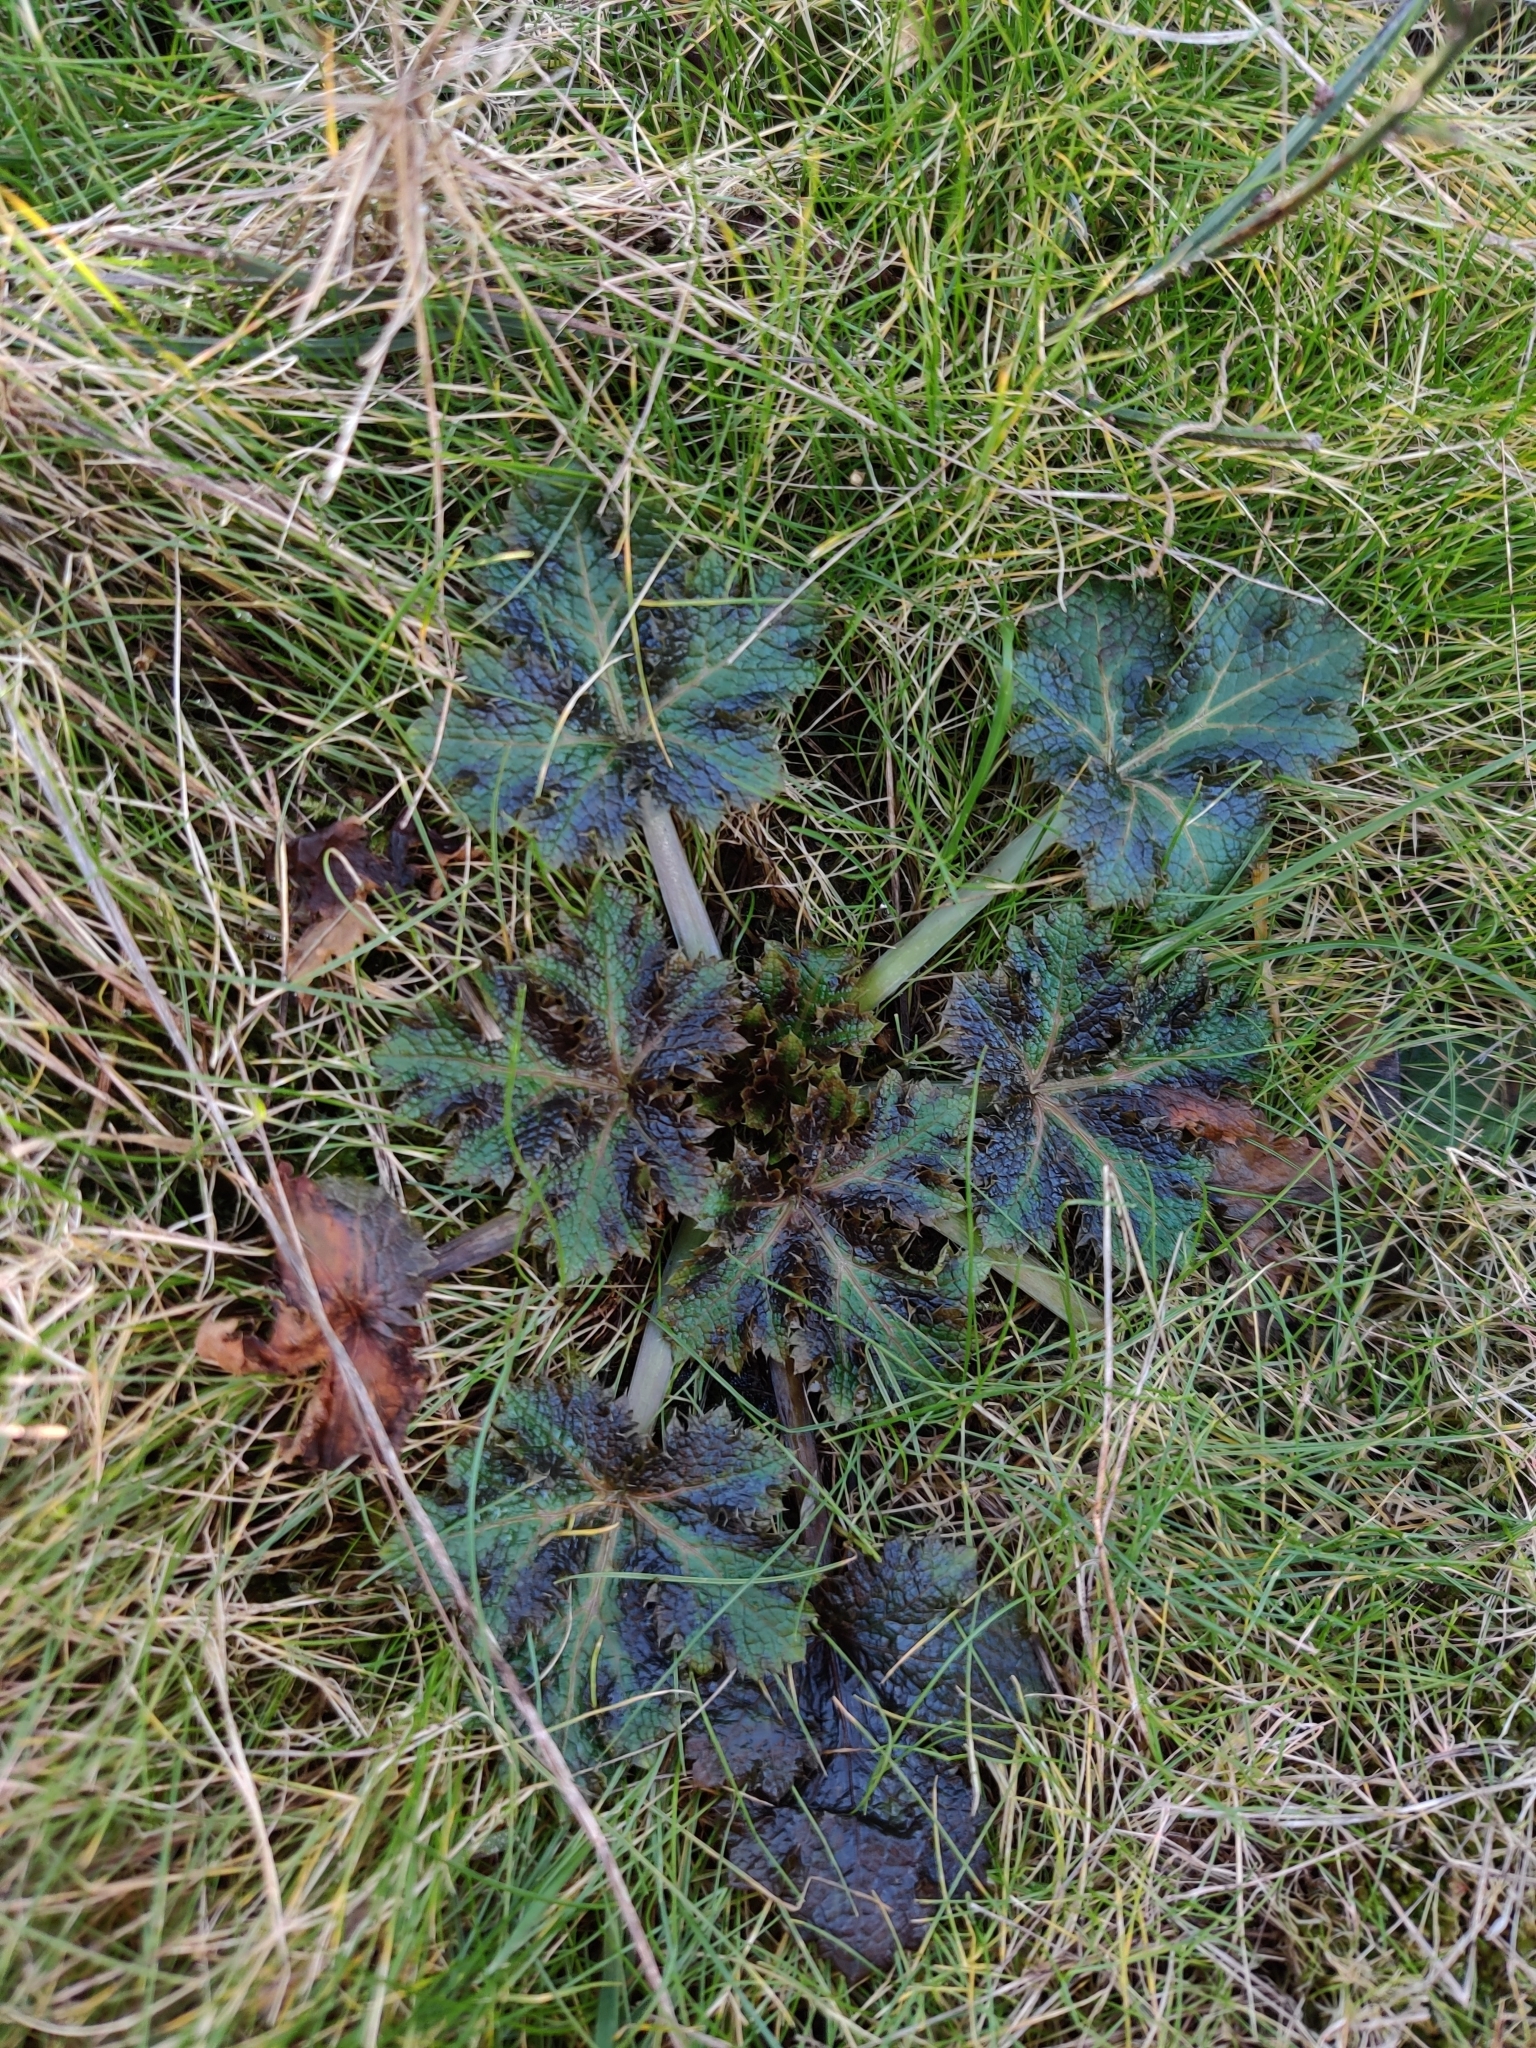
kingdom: Plantae
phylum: Tracheophyta
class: Magnoliopsida
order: Apiales
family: Apiaceae
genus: Sanicula
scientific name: Sanicula crassicaulis
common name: Western snakeroot
